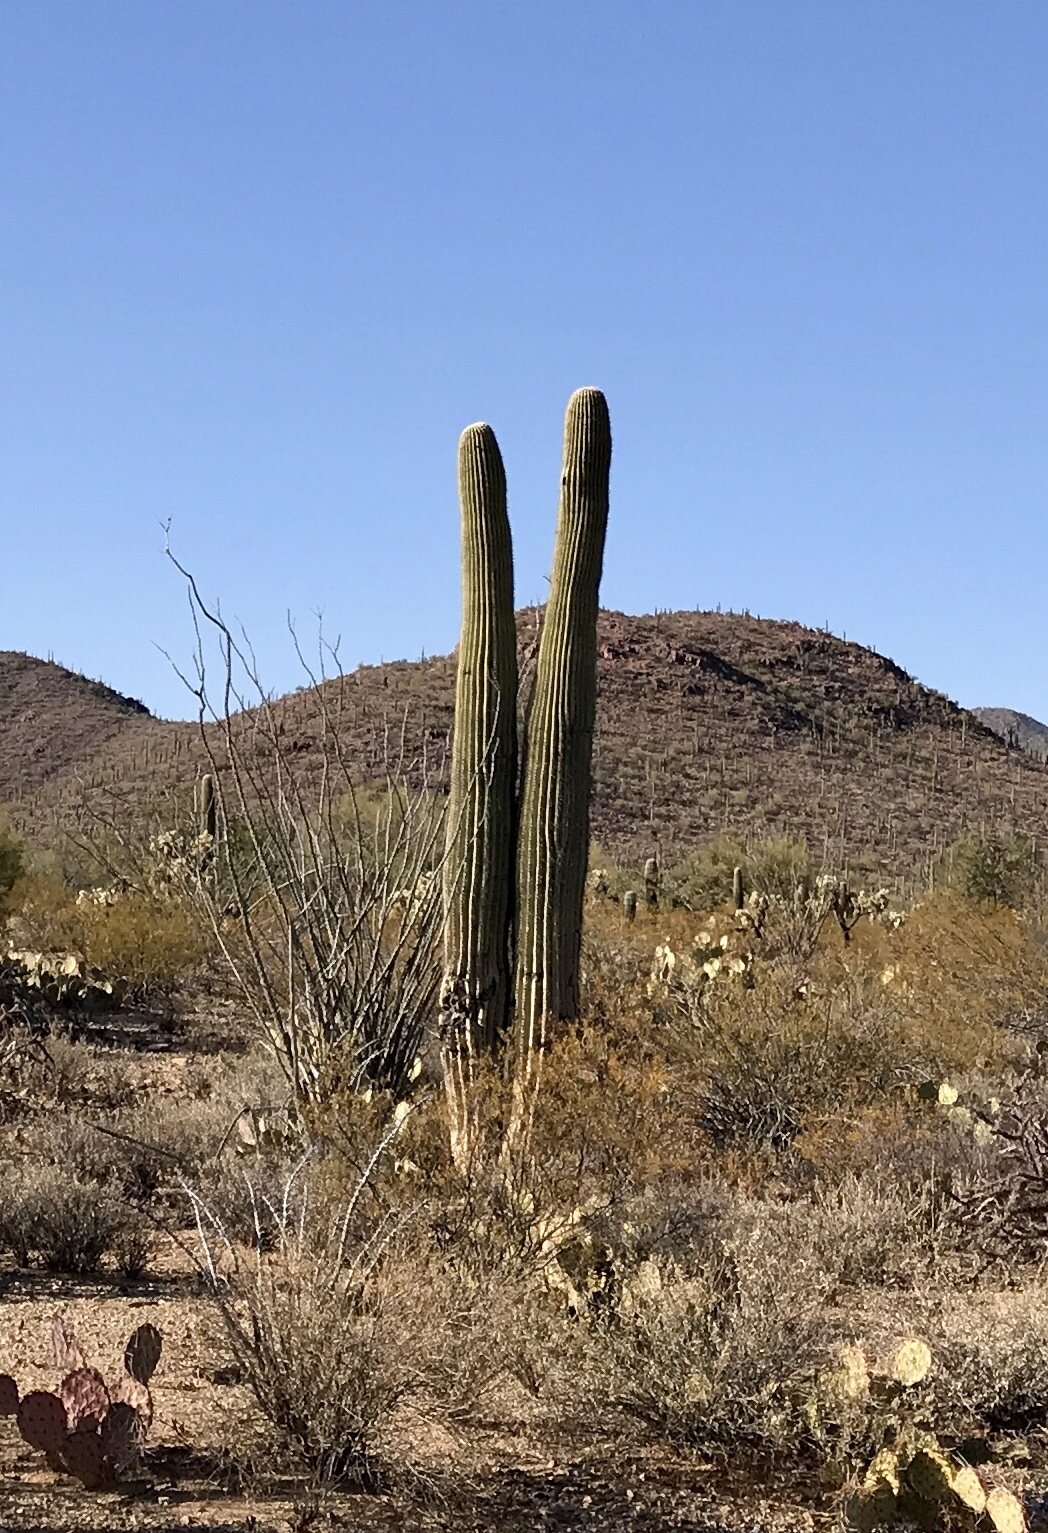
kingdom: Plantae
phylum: Tracheophyta
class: Magnoliopsida
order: Caryophyllales
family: Cactaceae
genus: Carnegiea
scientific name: Carnegiea gigantea
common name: Saguaro
